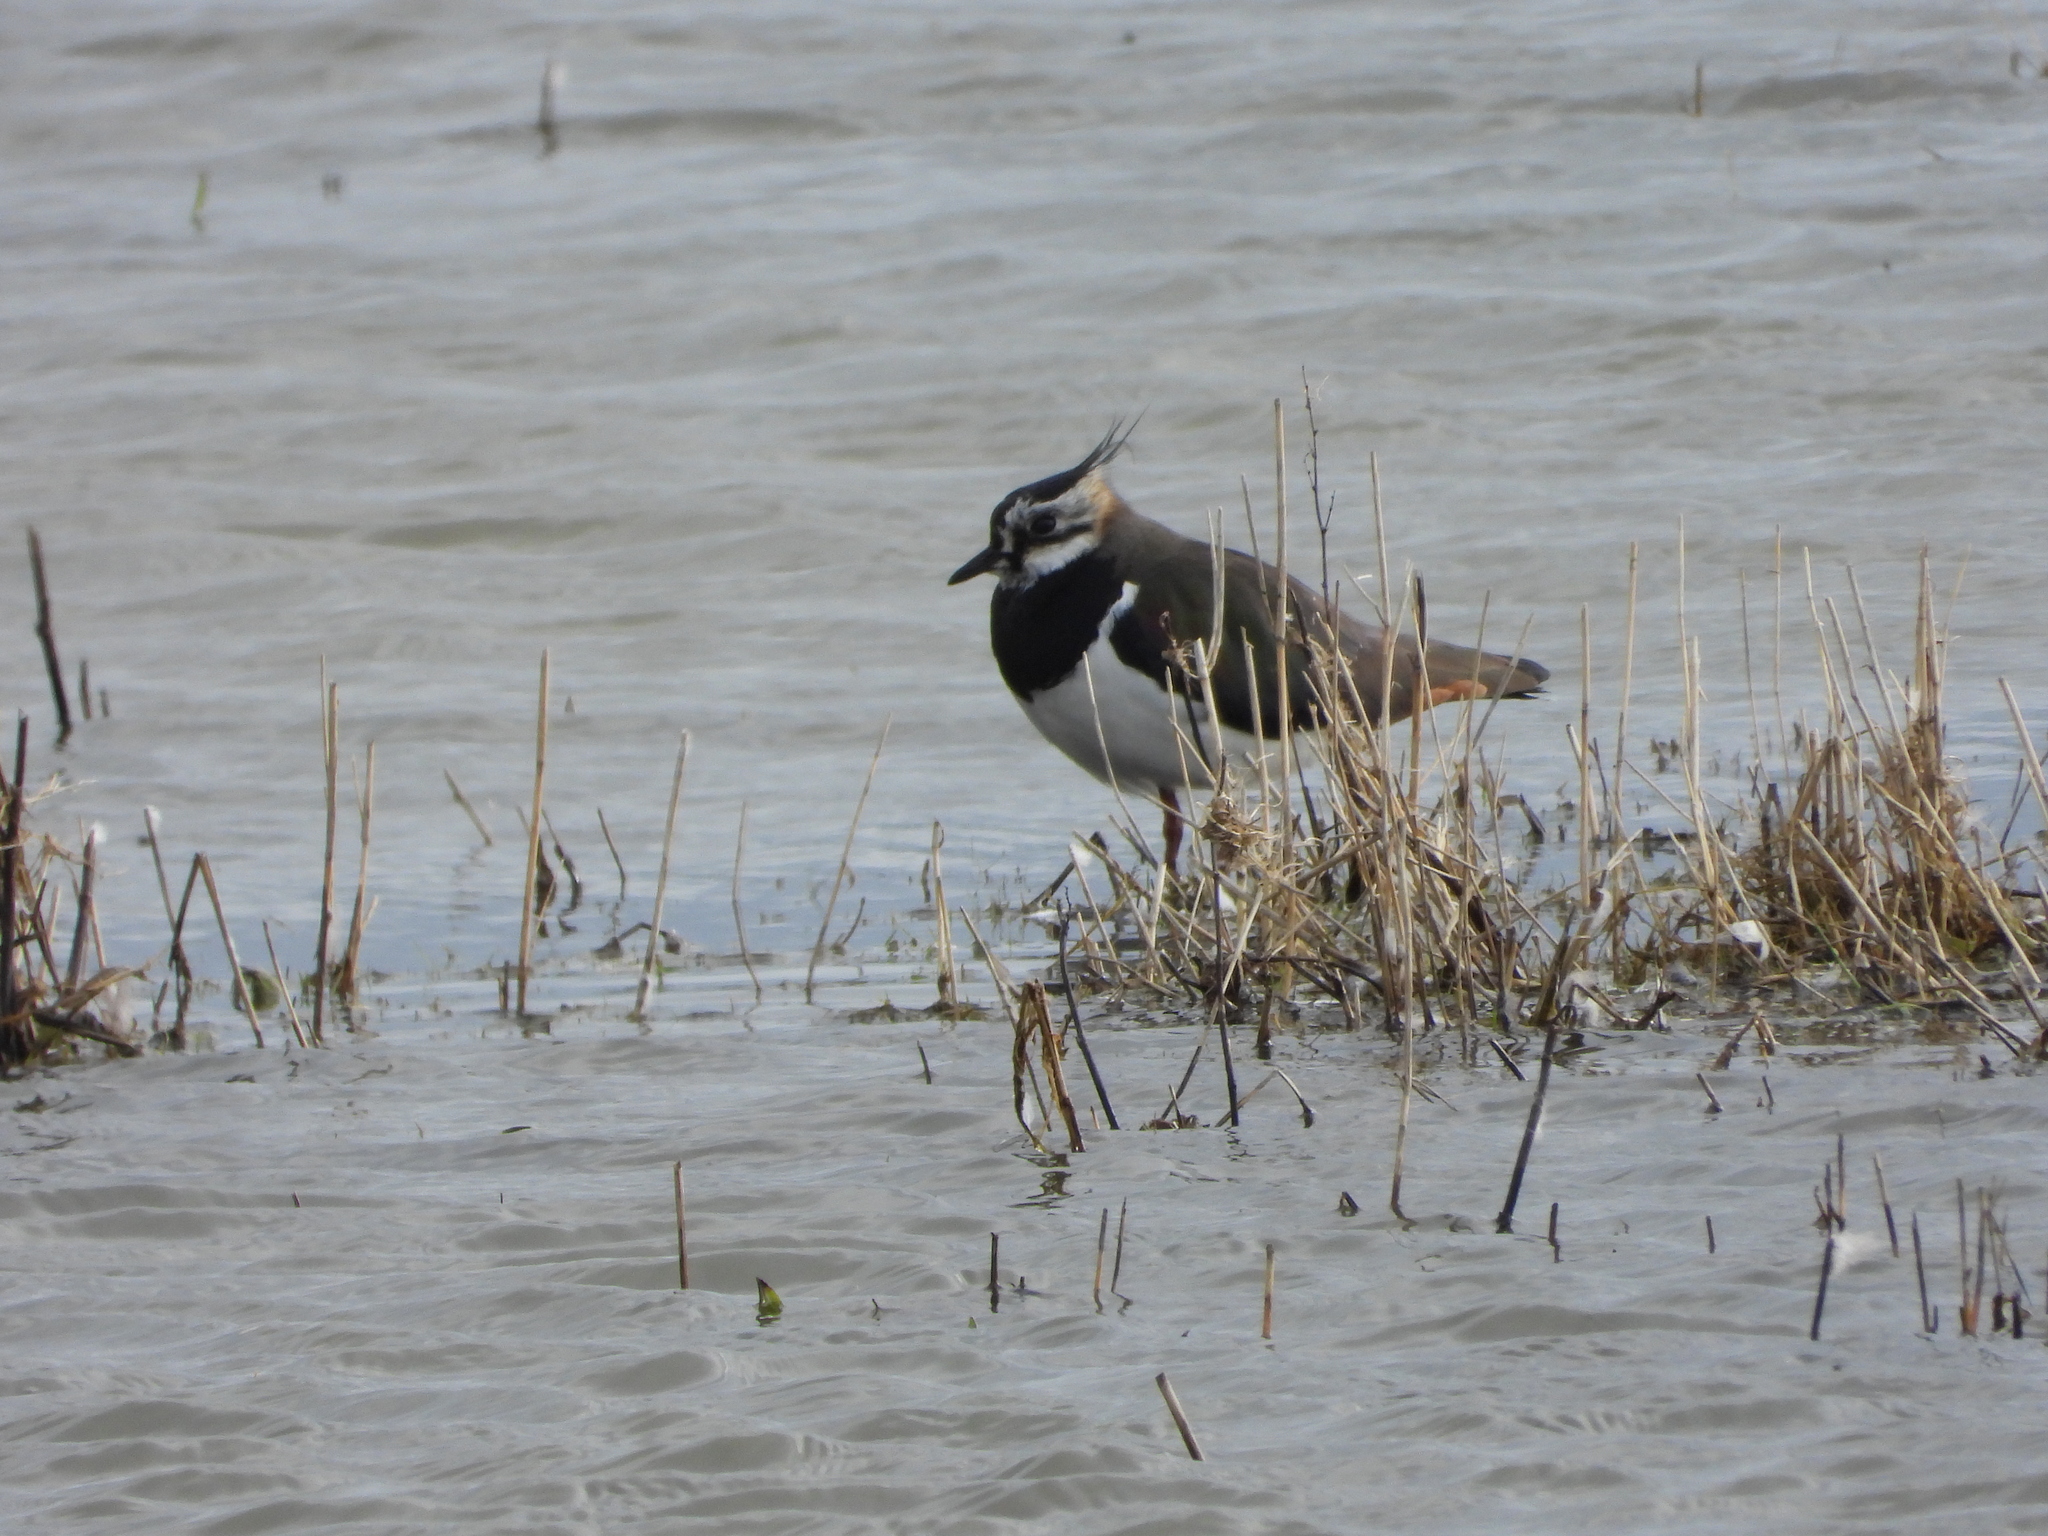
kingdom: Animalia
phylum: Chordata
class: Aves
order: Charadriiformes
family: Charadriidae
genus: Vanellus
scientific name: Vanellus vanellus
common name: Northern lapwing
